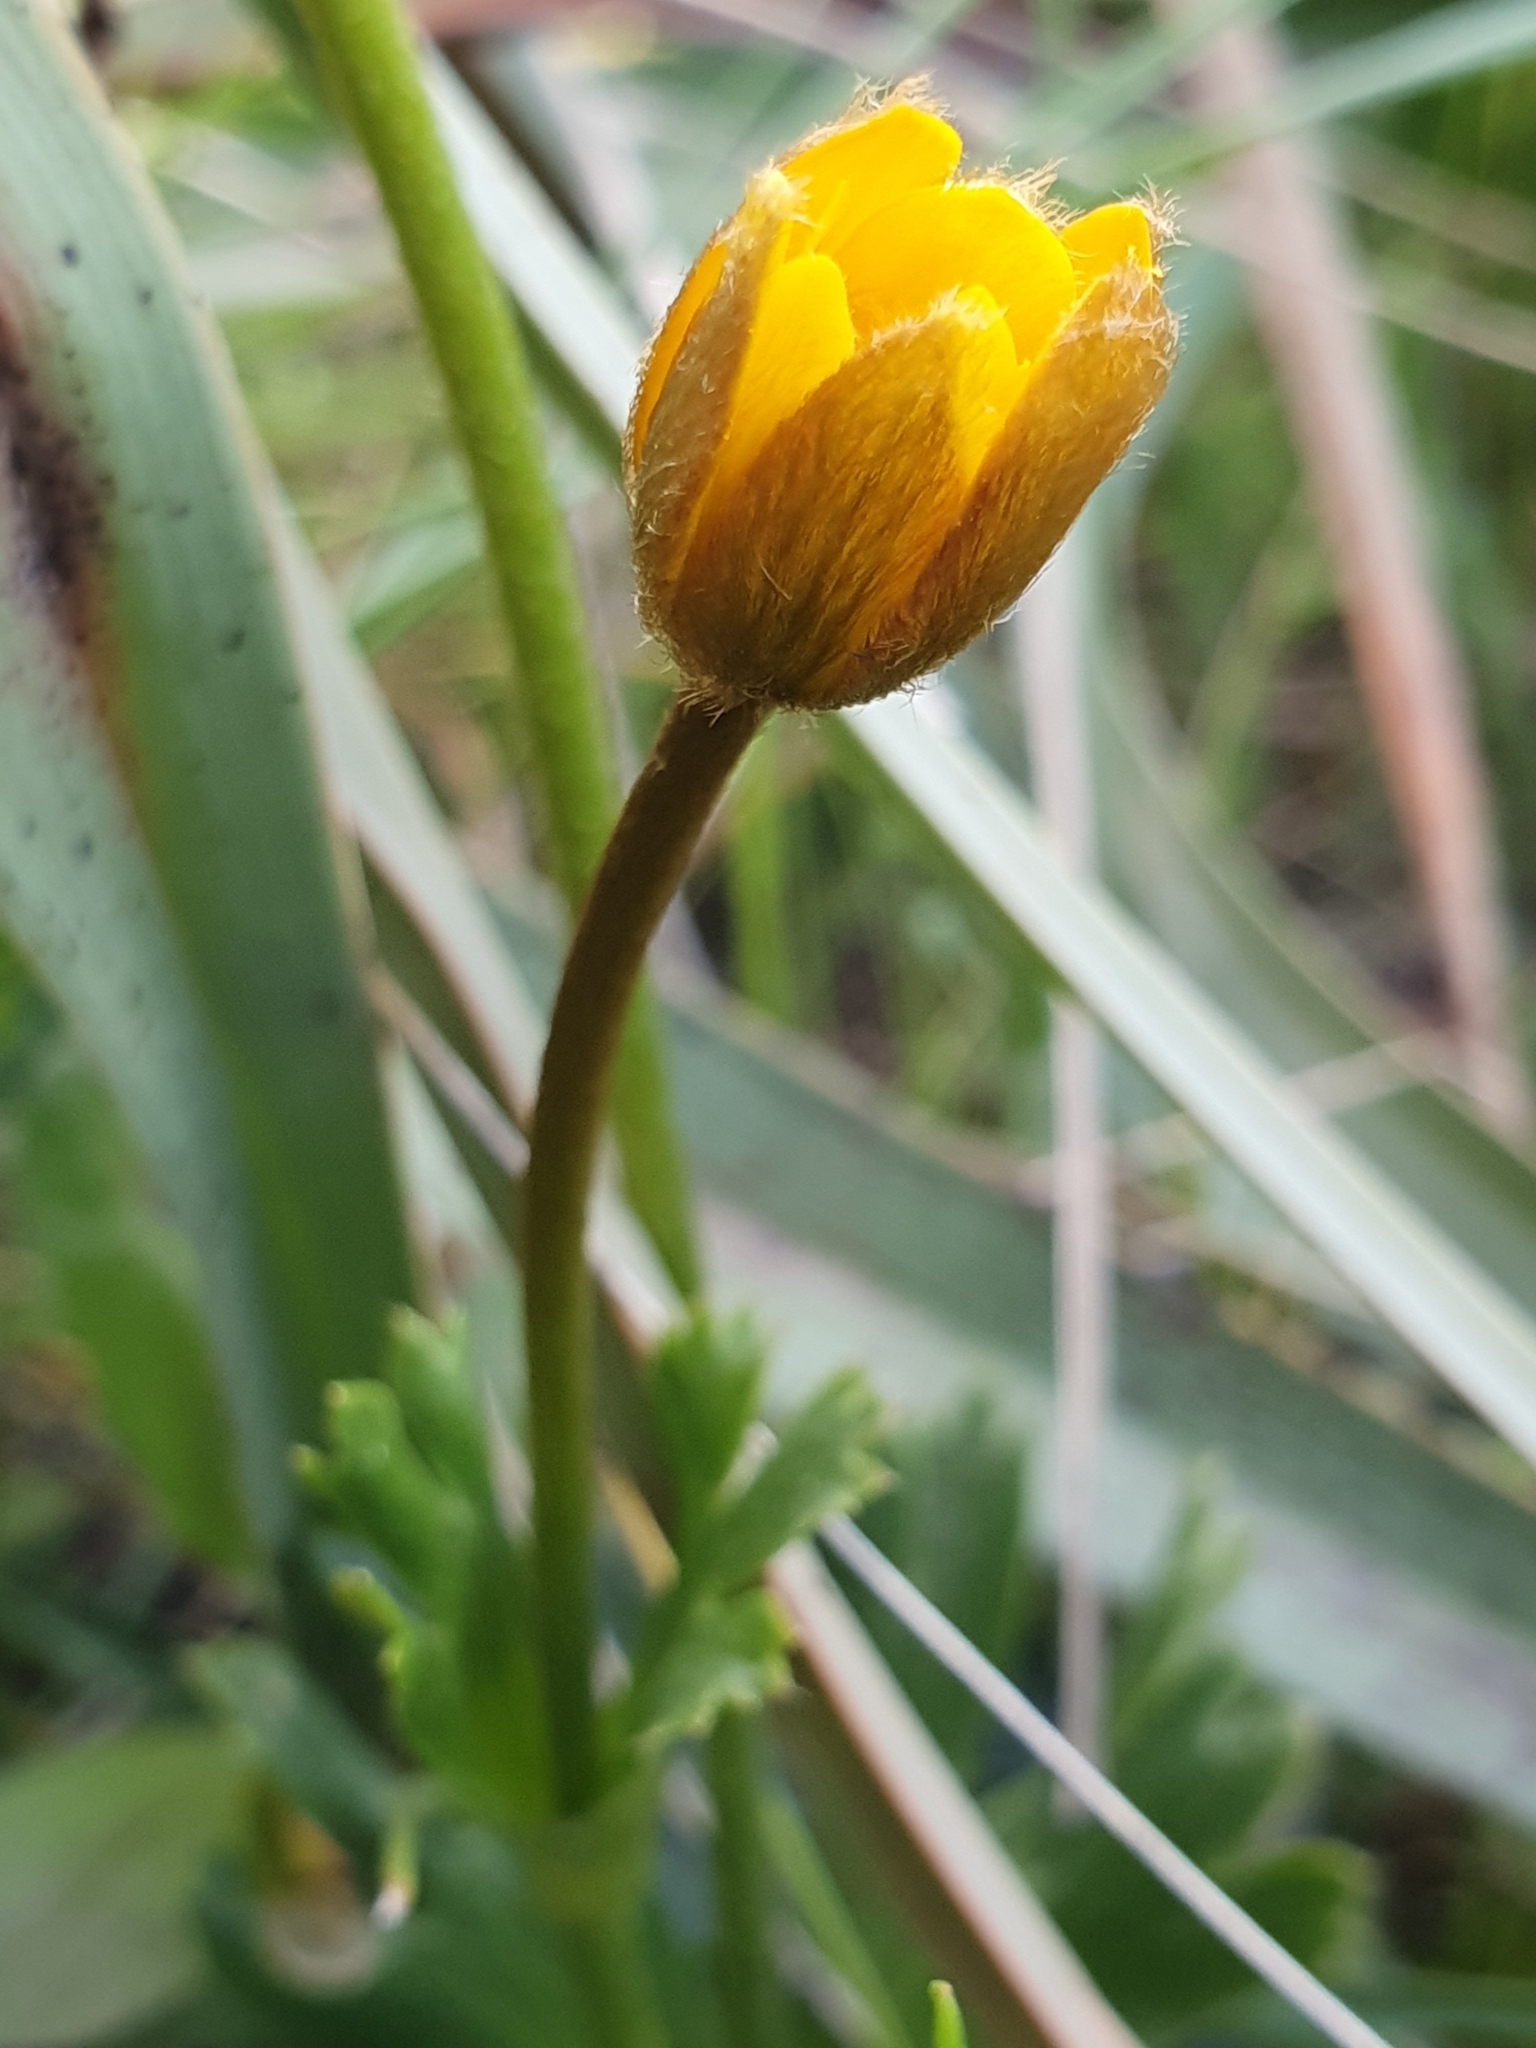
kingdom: Plantae
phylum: Tracheophyta
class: Magnoliopsida
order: Ranunculales
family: Ranunculaceae
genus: Anemone
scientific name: Anemone palmata
